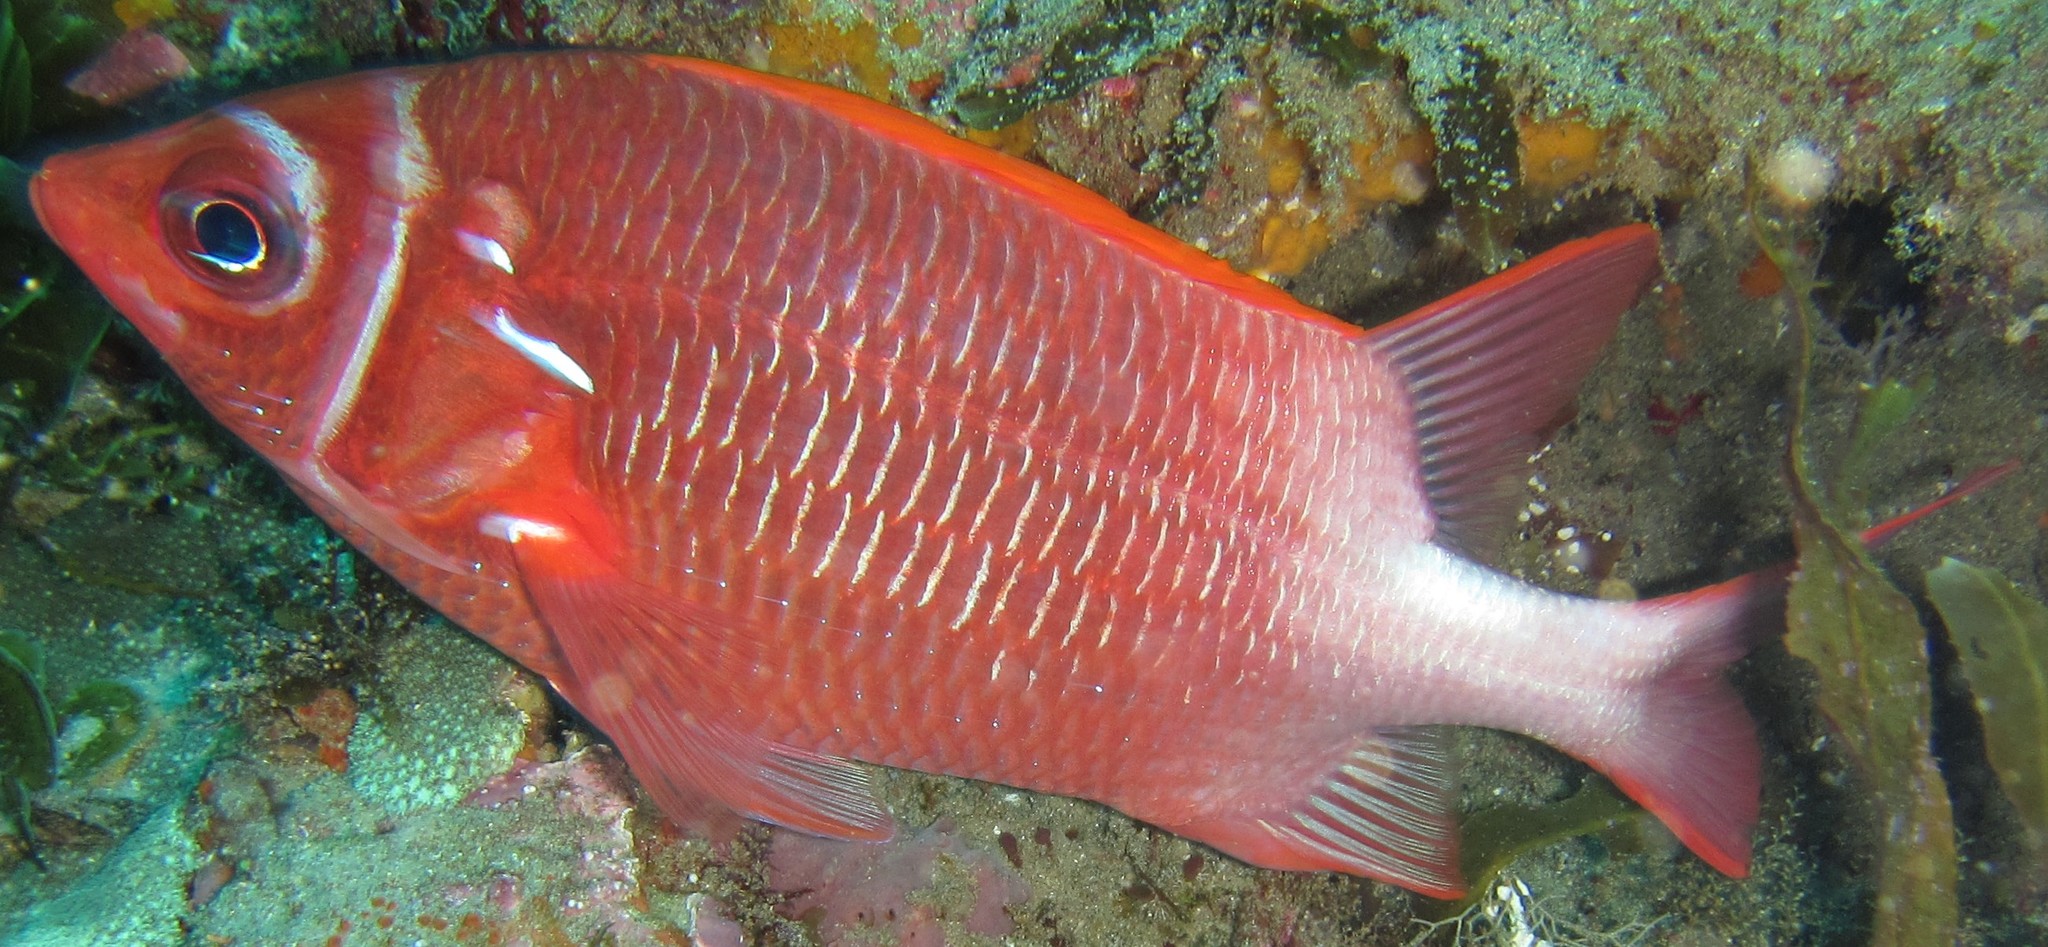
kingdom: Animalia
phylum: Chordata
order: Beryciformes
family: Holocentridae
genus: Sargocentron
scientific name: Sargocentron caudimaculatum
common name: Fanfin soldier
